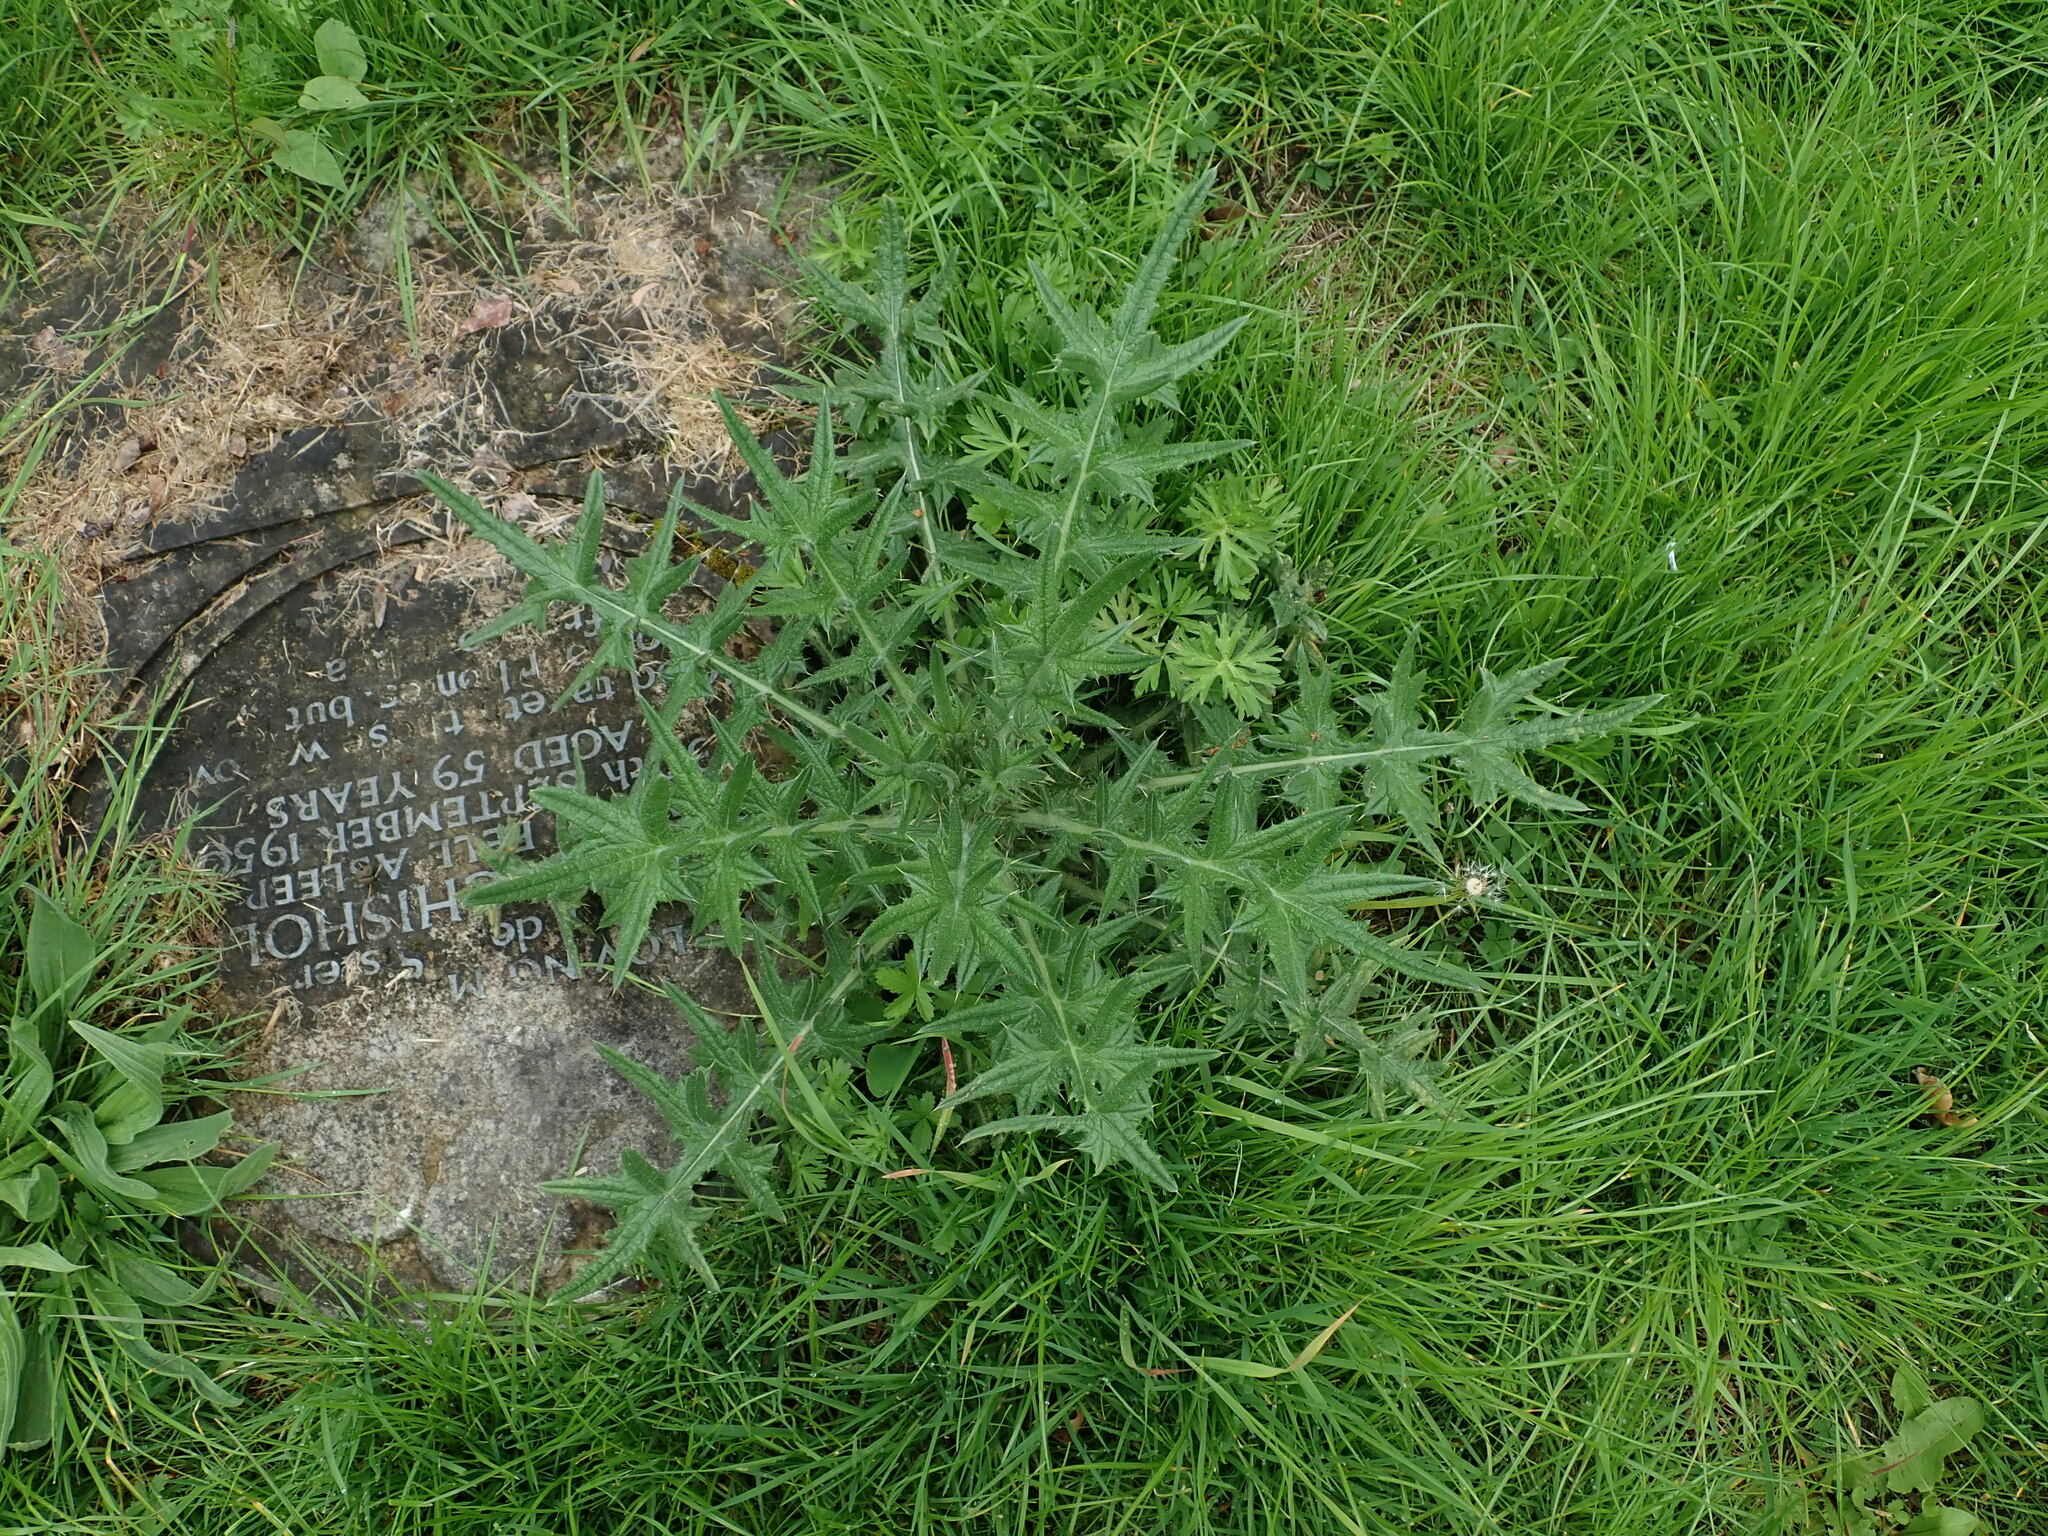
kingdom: Plantae
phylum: Tracheophyta
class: Magnoliopsida
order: Asterales
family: Asteraceae
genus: Cirsium
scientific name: Cirsium vulgare
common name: Bull thistle
